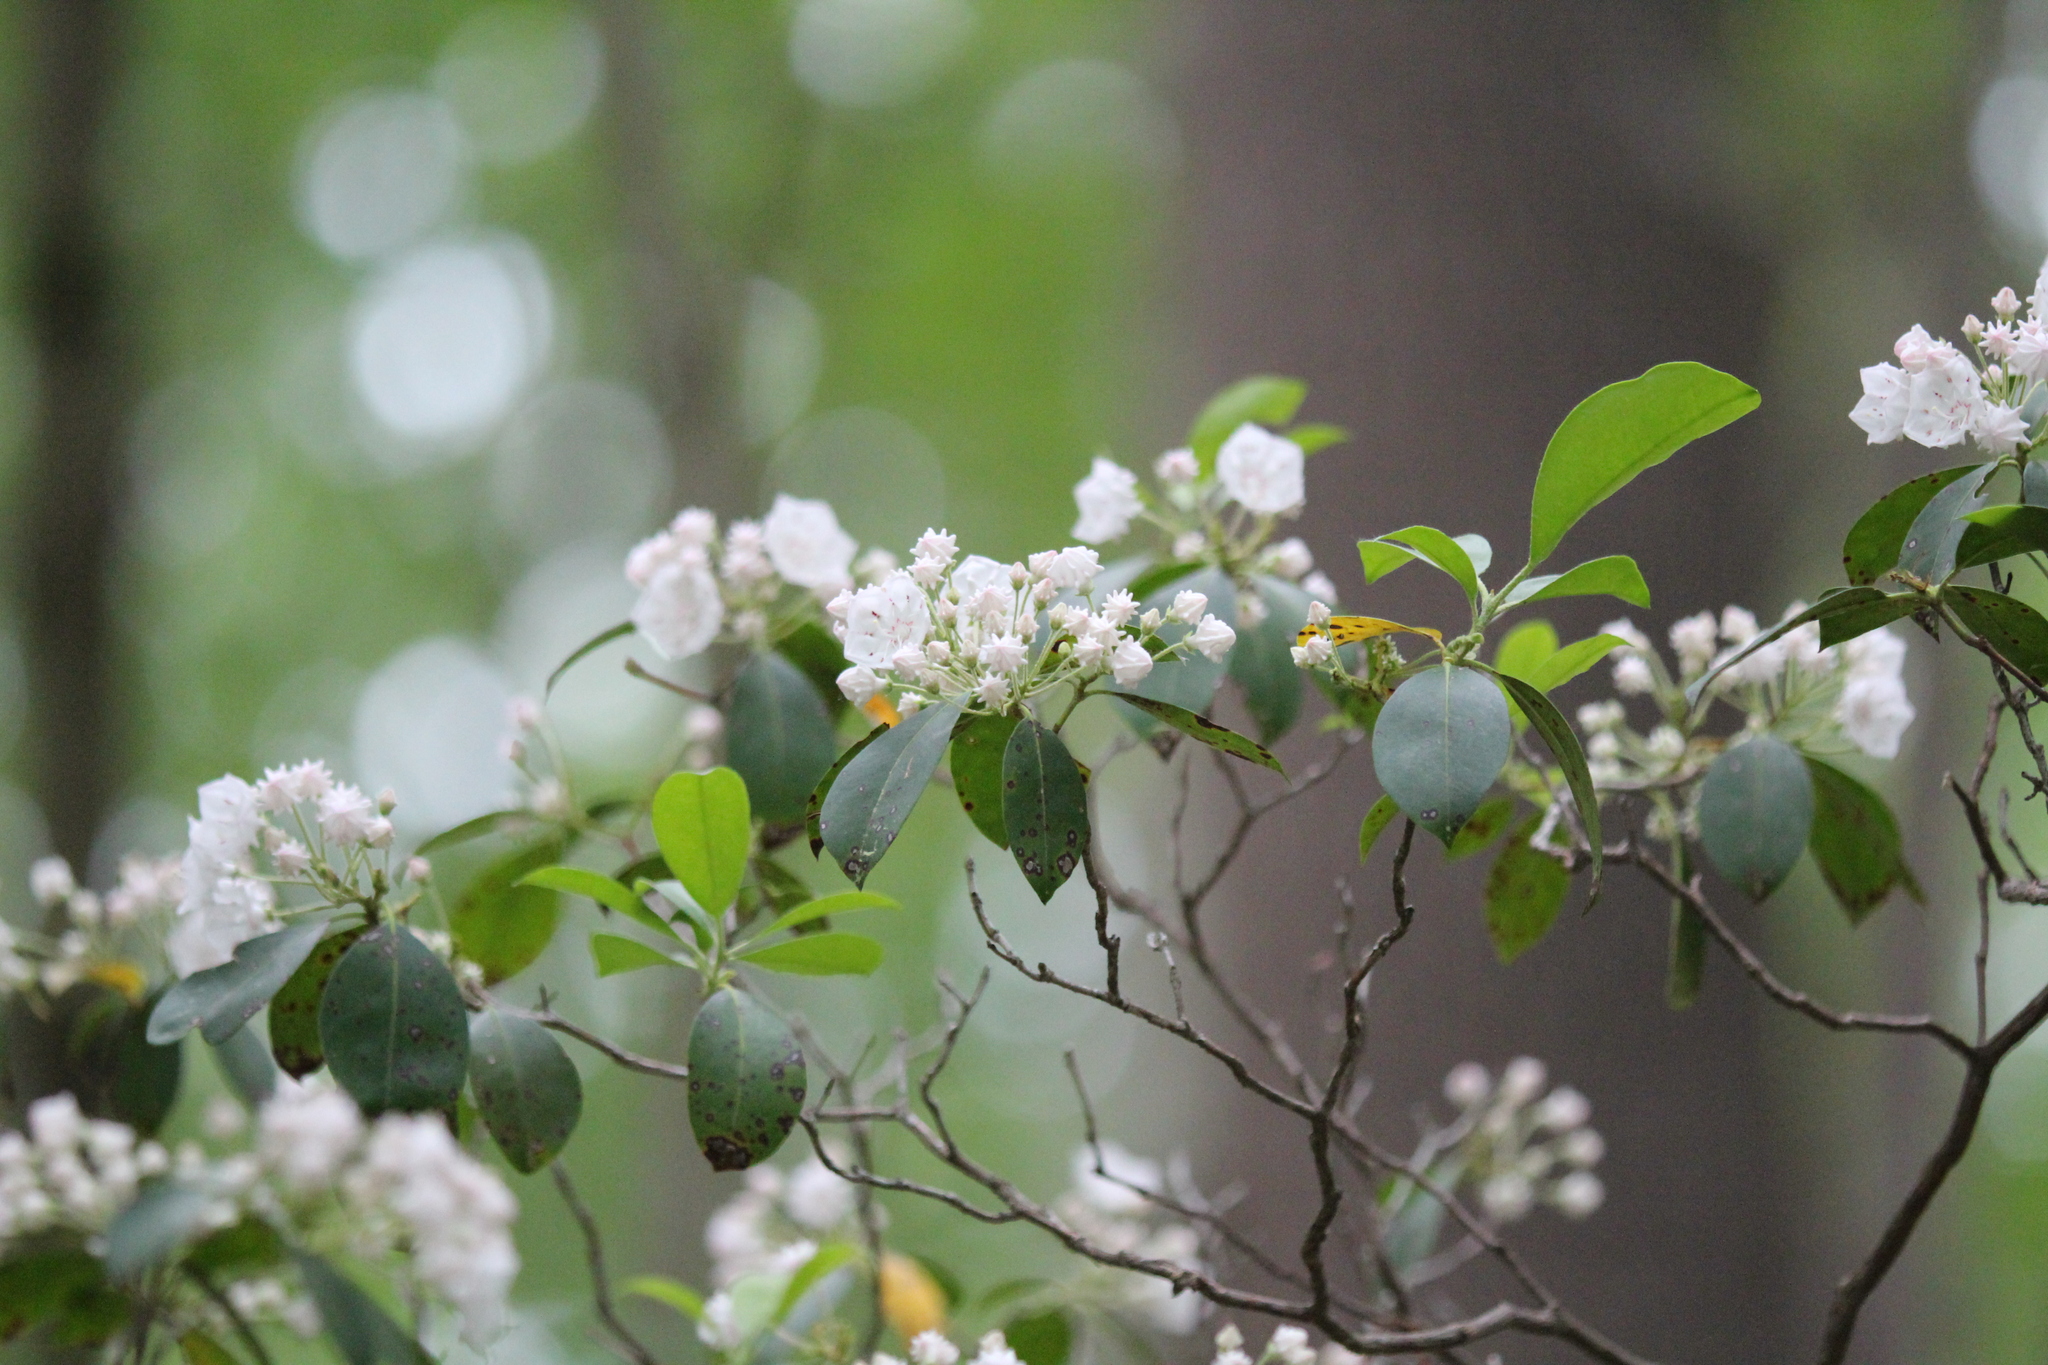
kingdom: Plantae
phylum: Tracheophyta
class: Magnoliopsida
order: Ericales
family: Ericaceae
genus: Kalmia
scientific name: Kalmia latifolia
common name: Mountain-laurel
